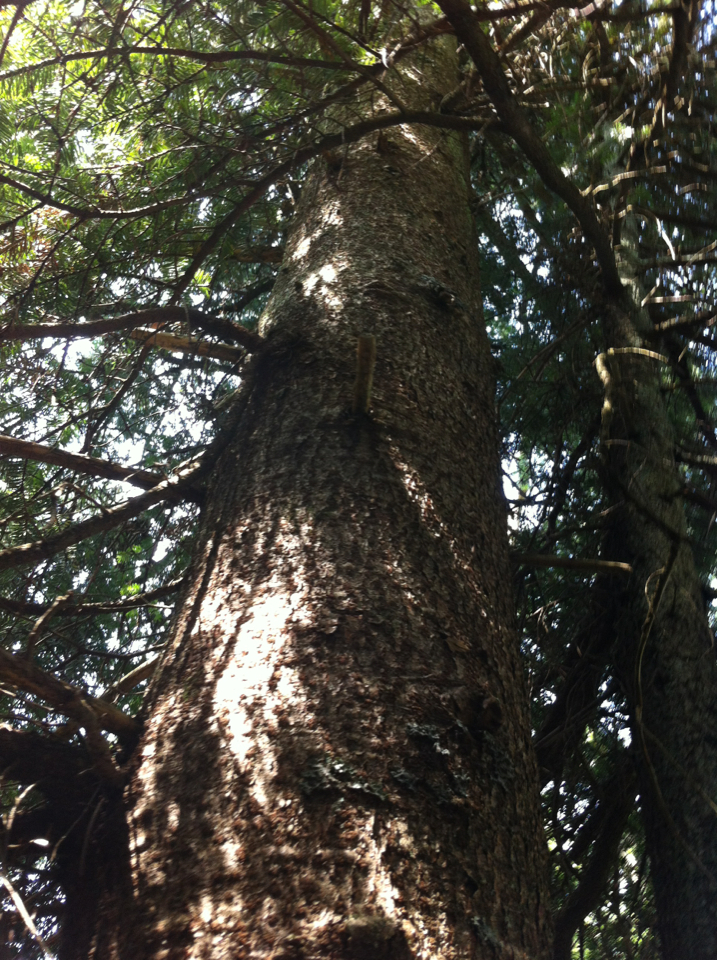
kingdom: Plantae
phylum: Tracheophyta
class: Pinopsida
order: Pinales
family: Pinaceae
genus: Abies
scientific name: Abies balsamea
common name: Balsam fir
